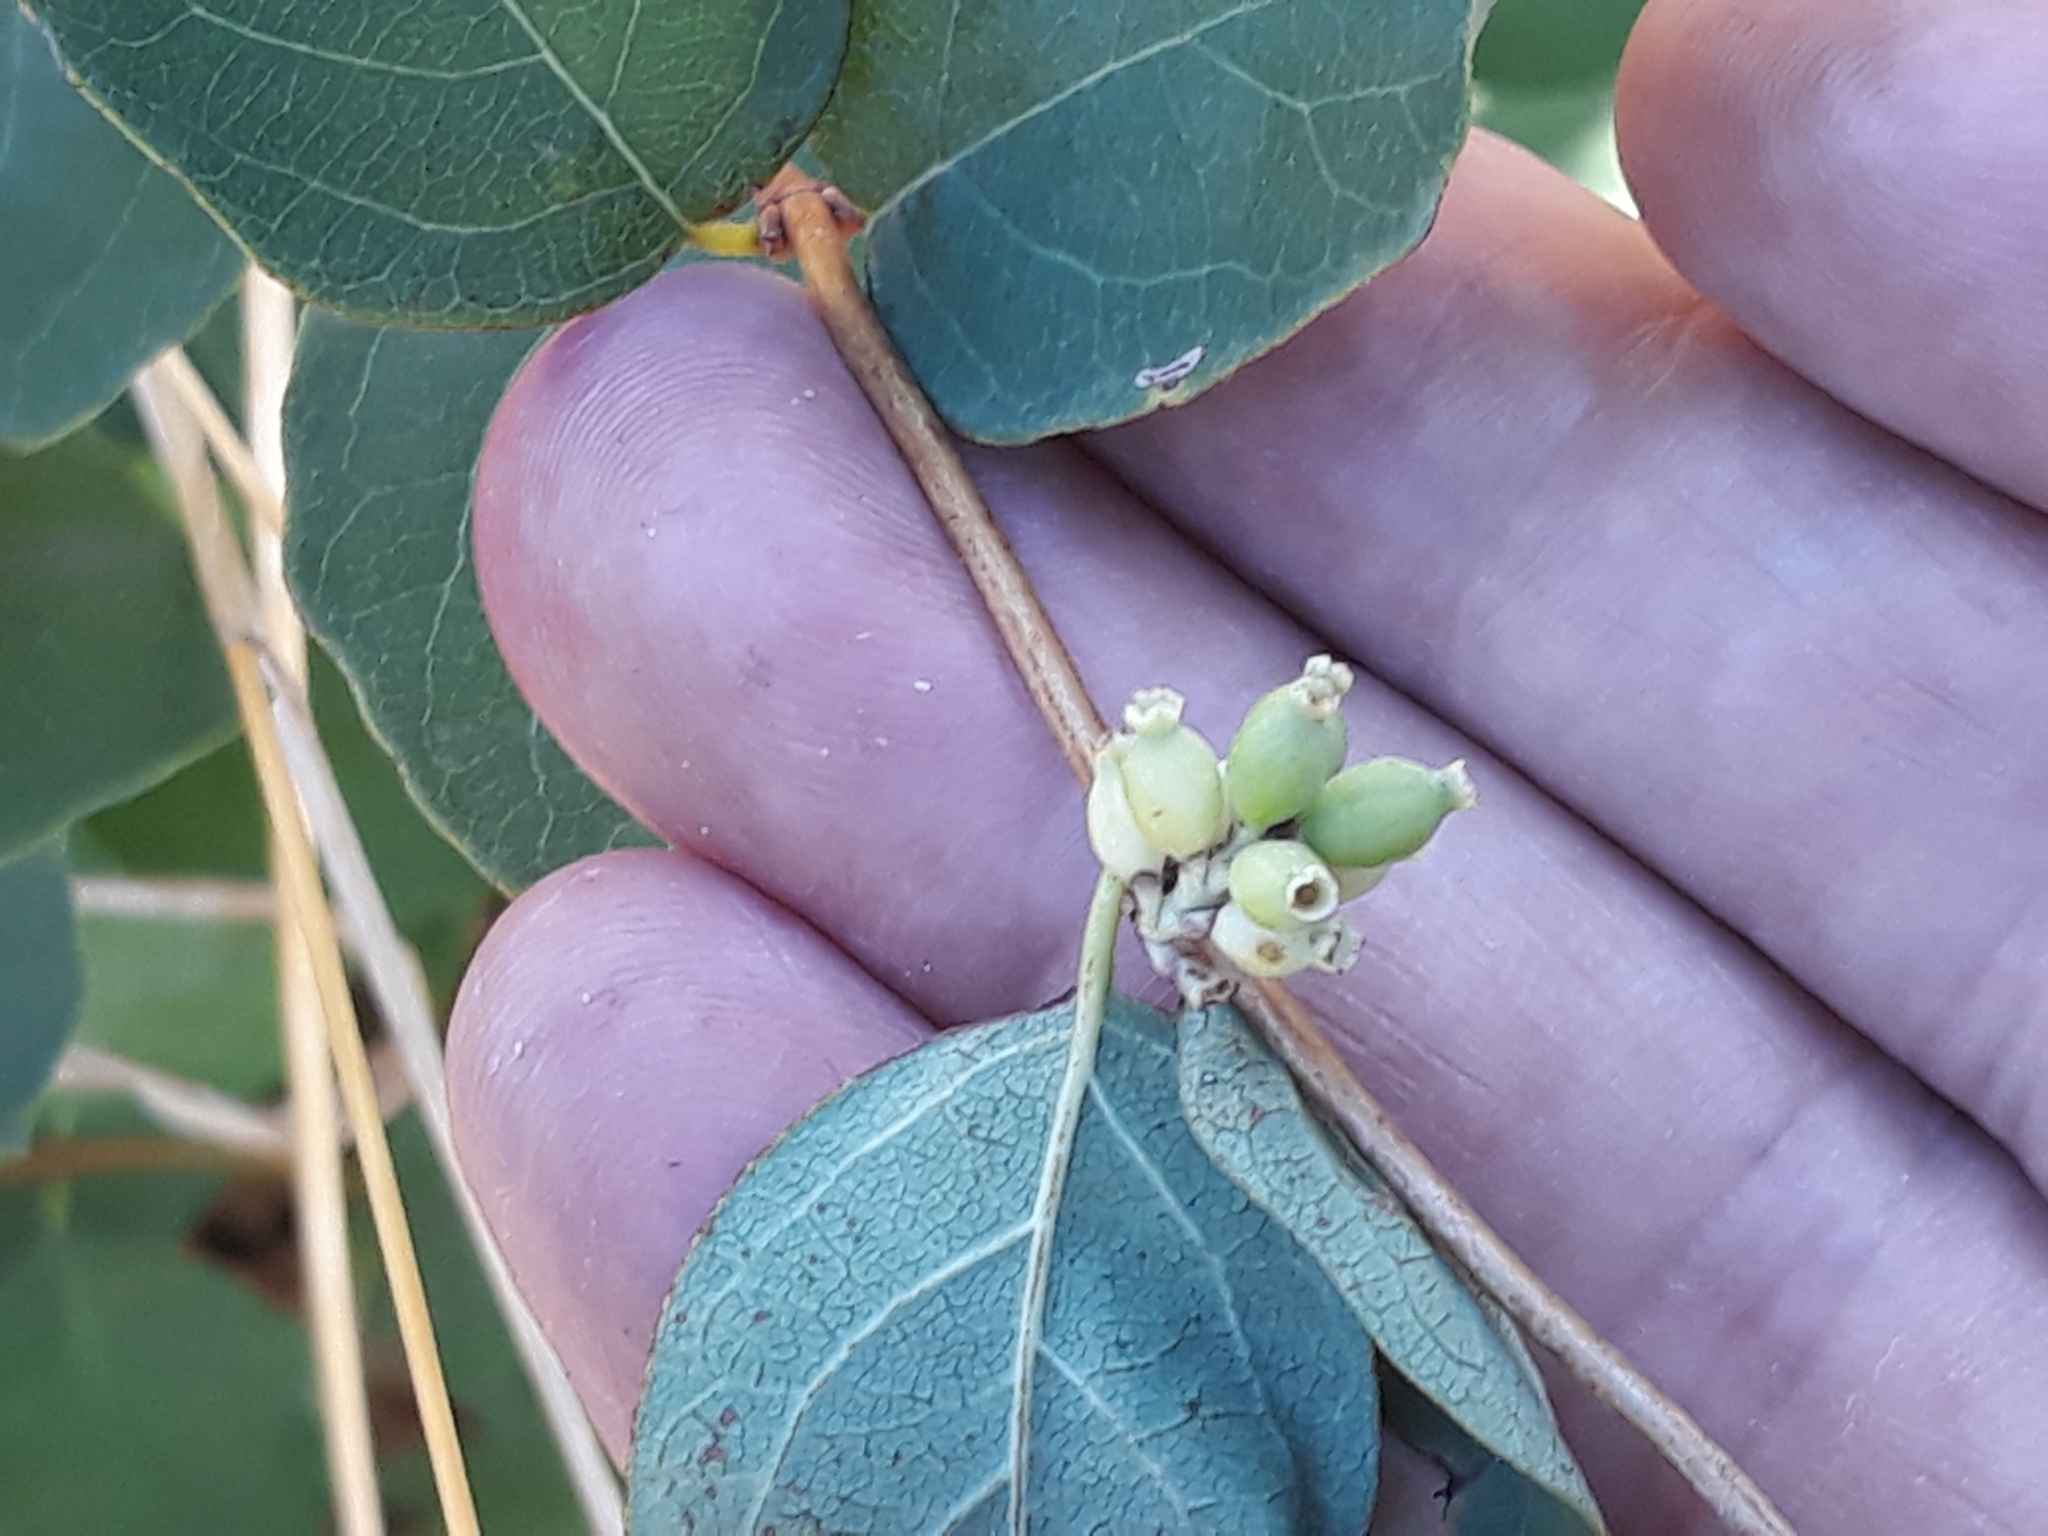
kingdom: Plantae
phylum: Tracheophyta
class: Magnoliopsida
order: Dipsacales
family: Caprifoliaceae
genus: Symphoricarpos
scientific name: Symphoricarpos albus
